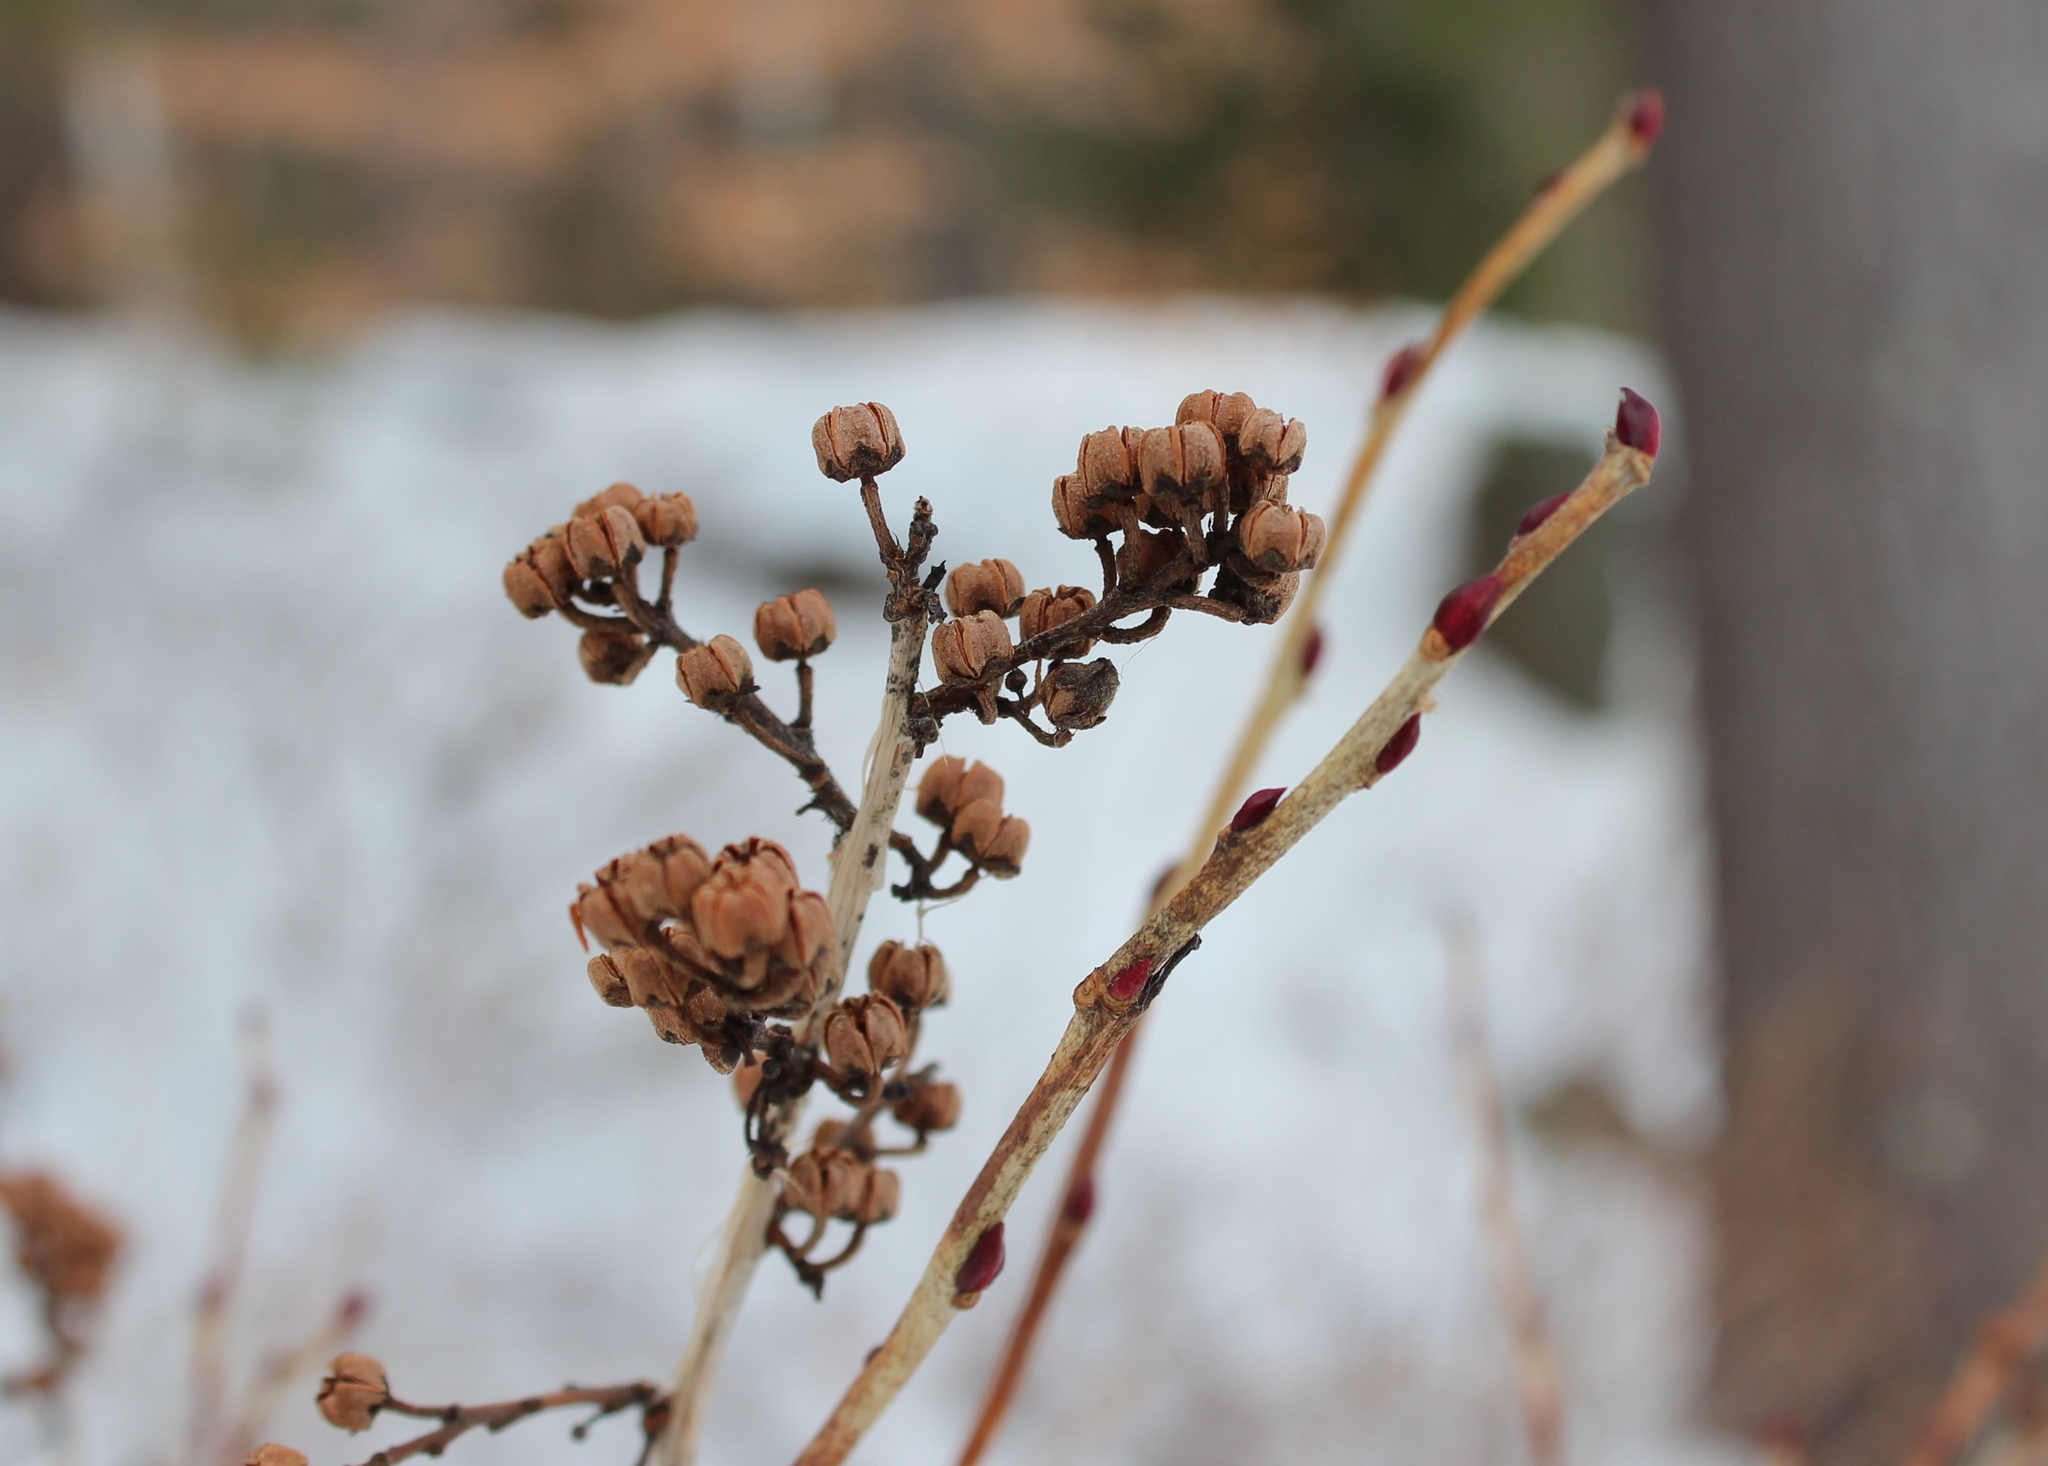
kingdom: Plantae
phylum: Tracheophyta
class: Magnoliopsida
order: Ericales
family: Ericaceae
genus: Lyonia
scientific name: Lyonia ligustrina
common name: Maleberry
